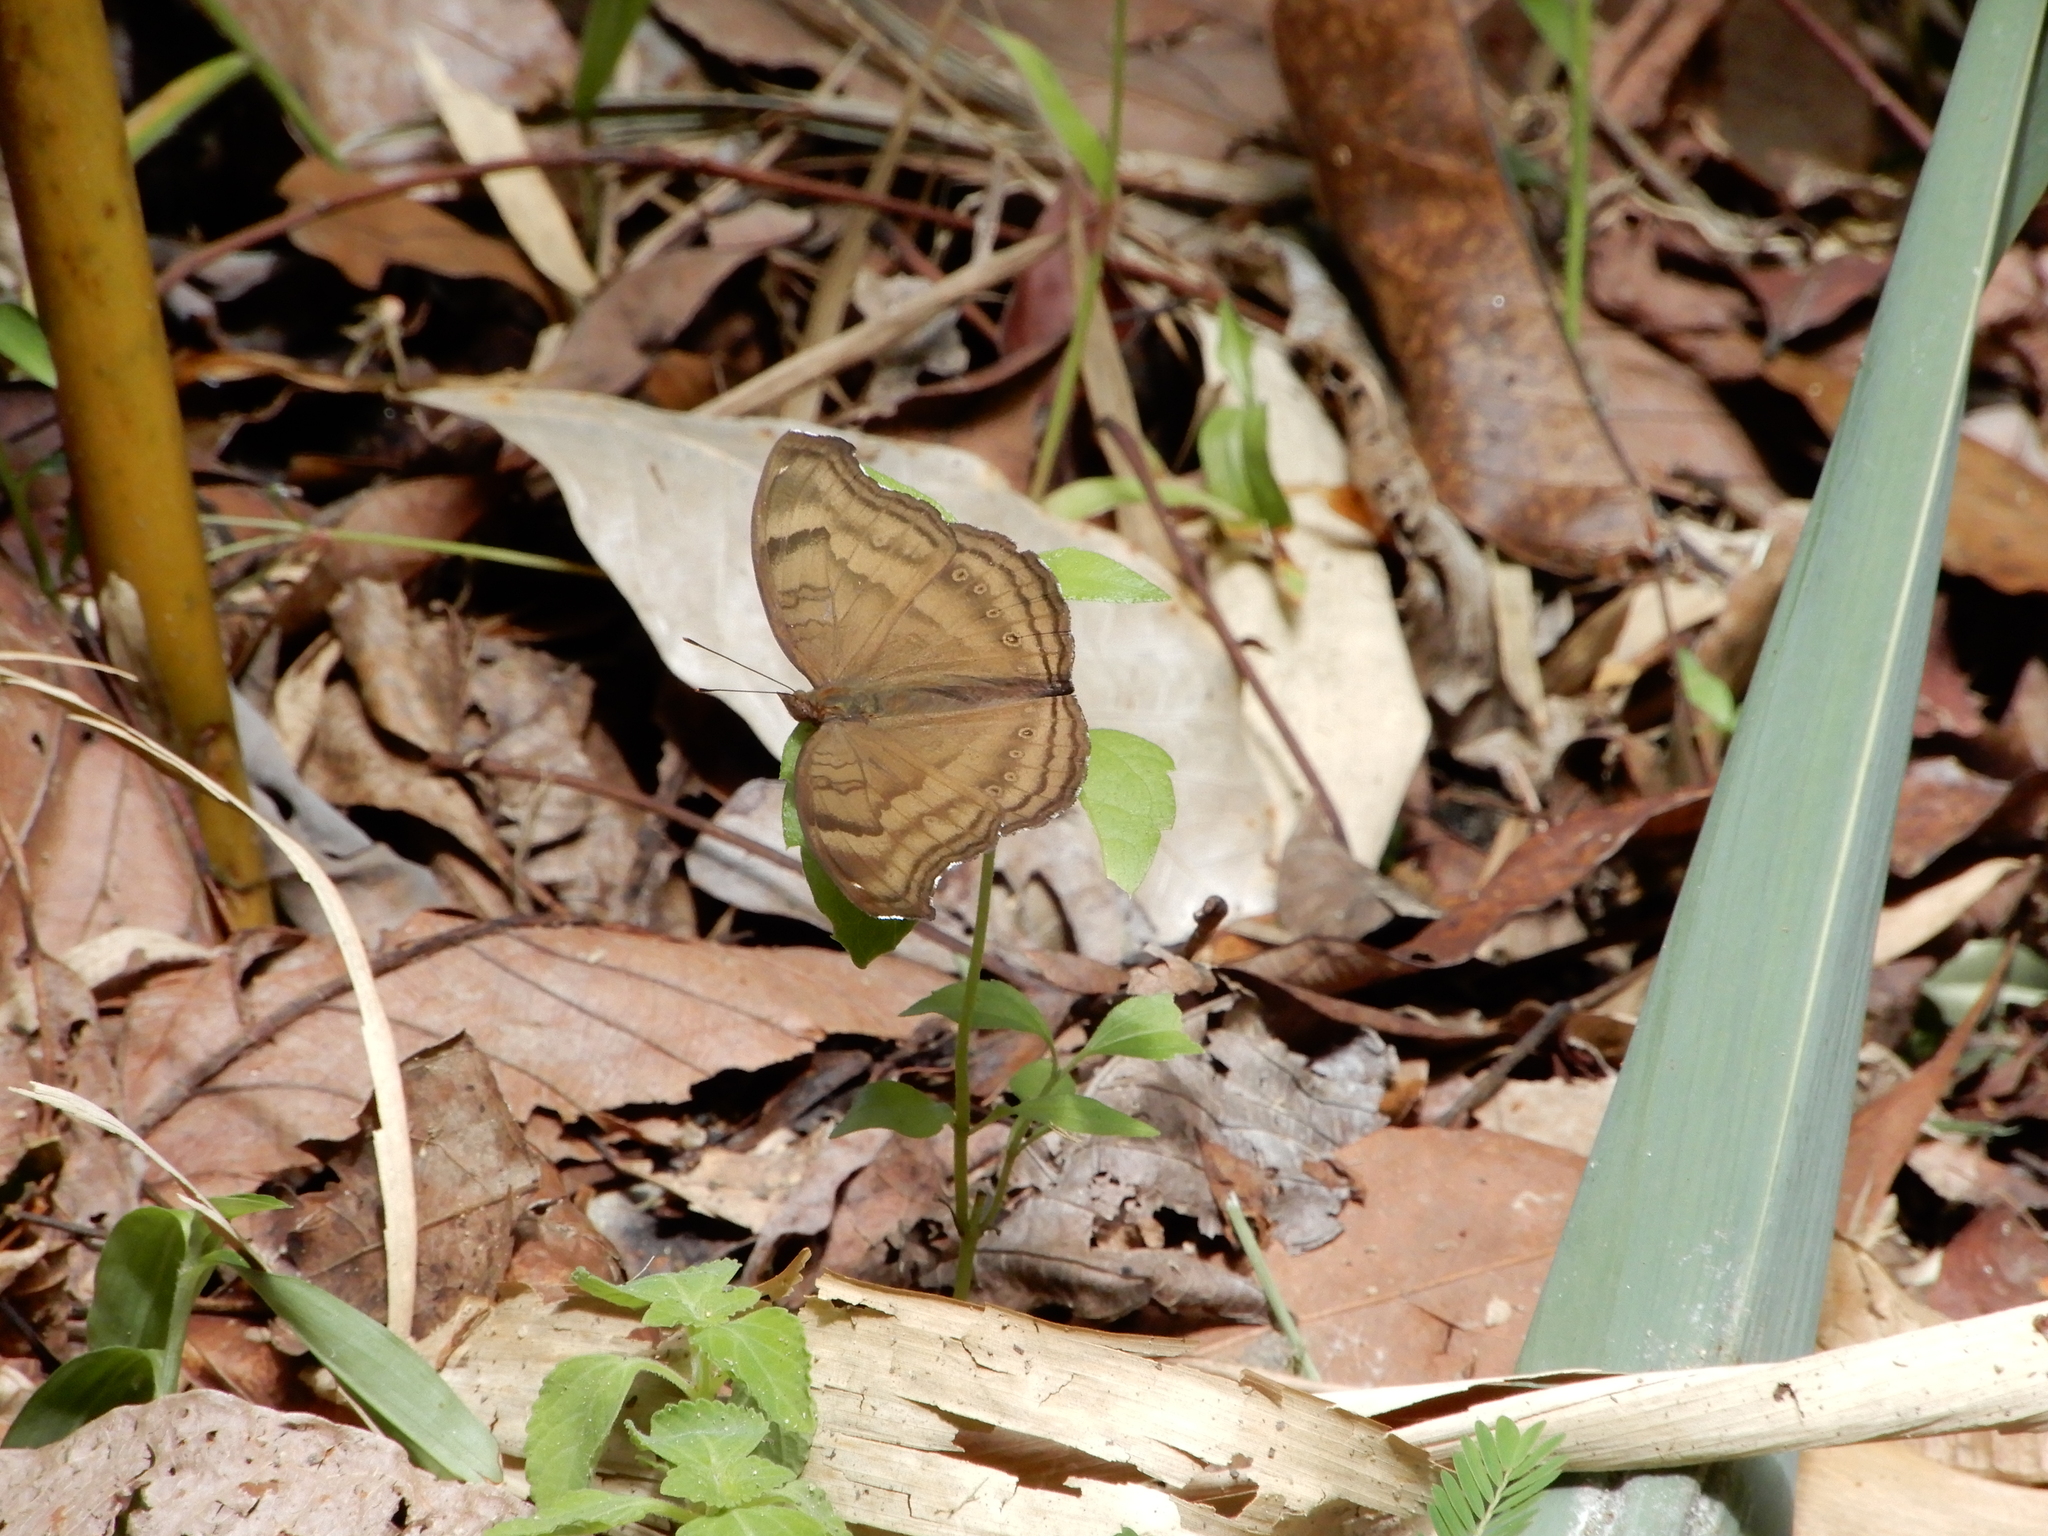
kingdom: Animalia
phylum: Arthropoda
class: Insecta
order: Lepidoptera
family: Nymphalidae
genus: Junonia
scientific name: Junonia iphita
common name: Chocolate pansy
